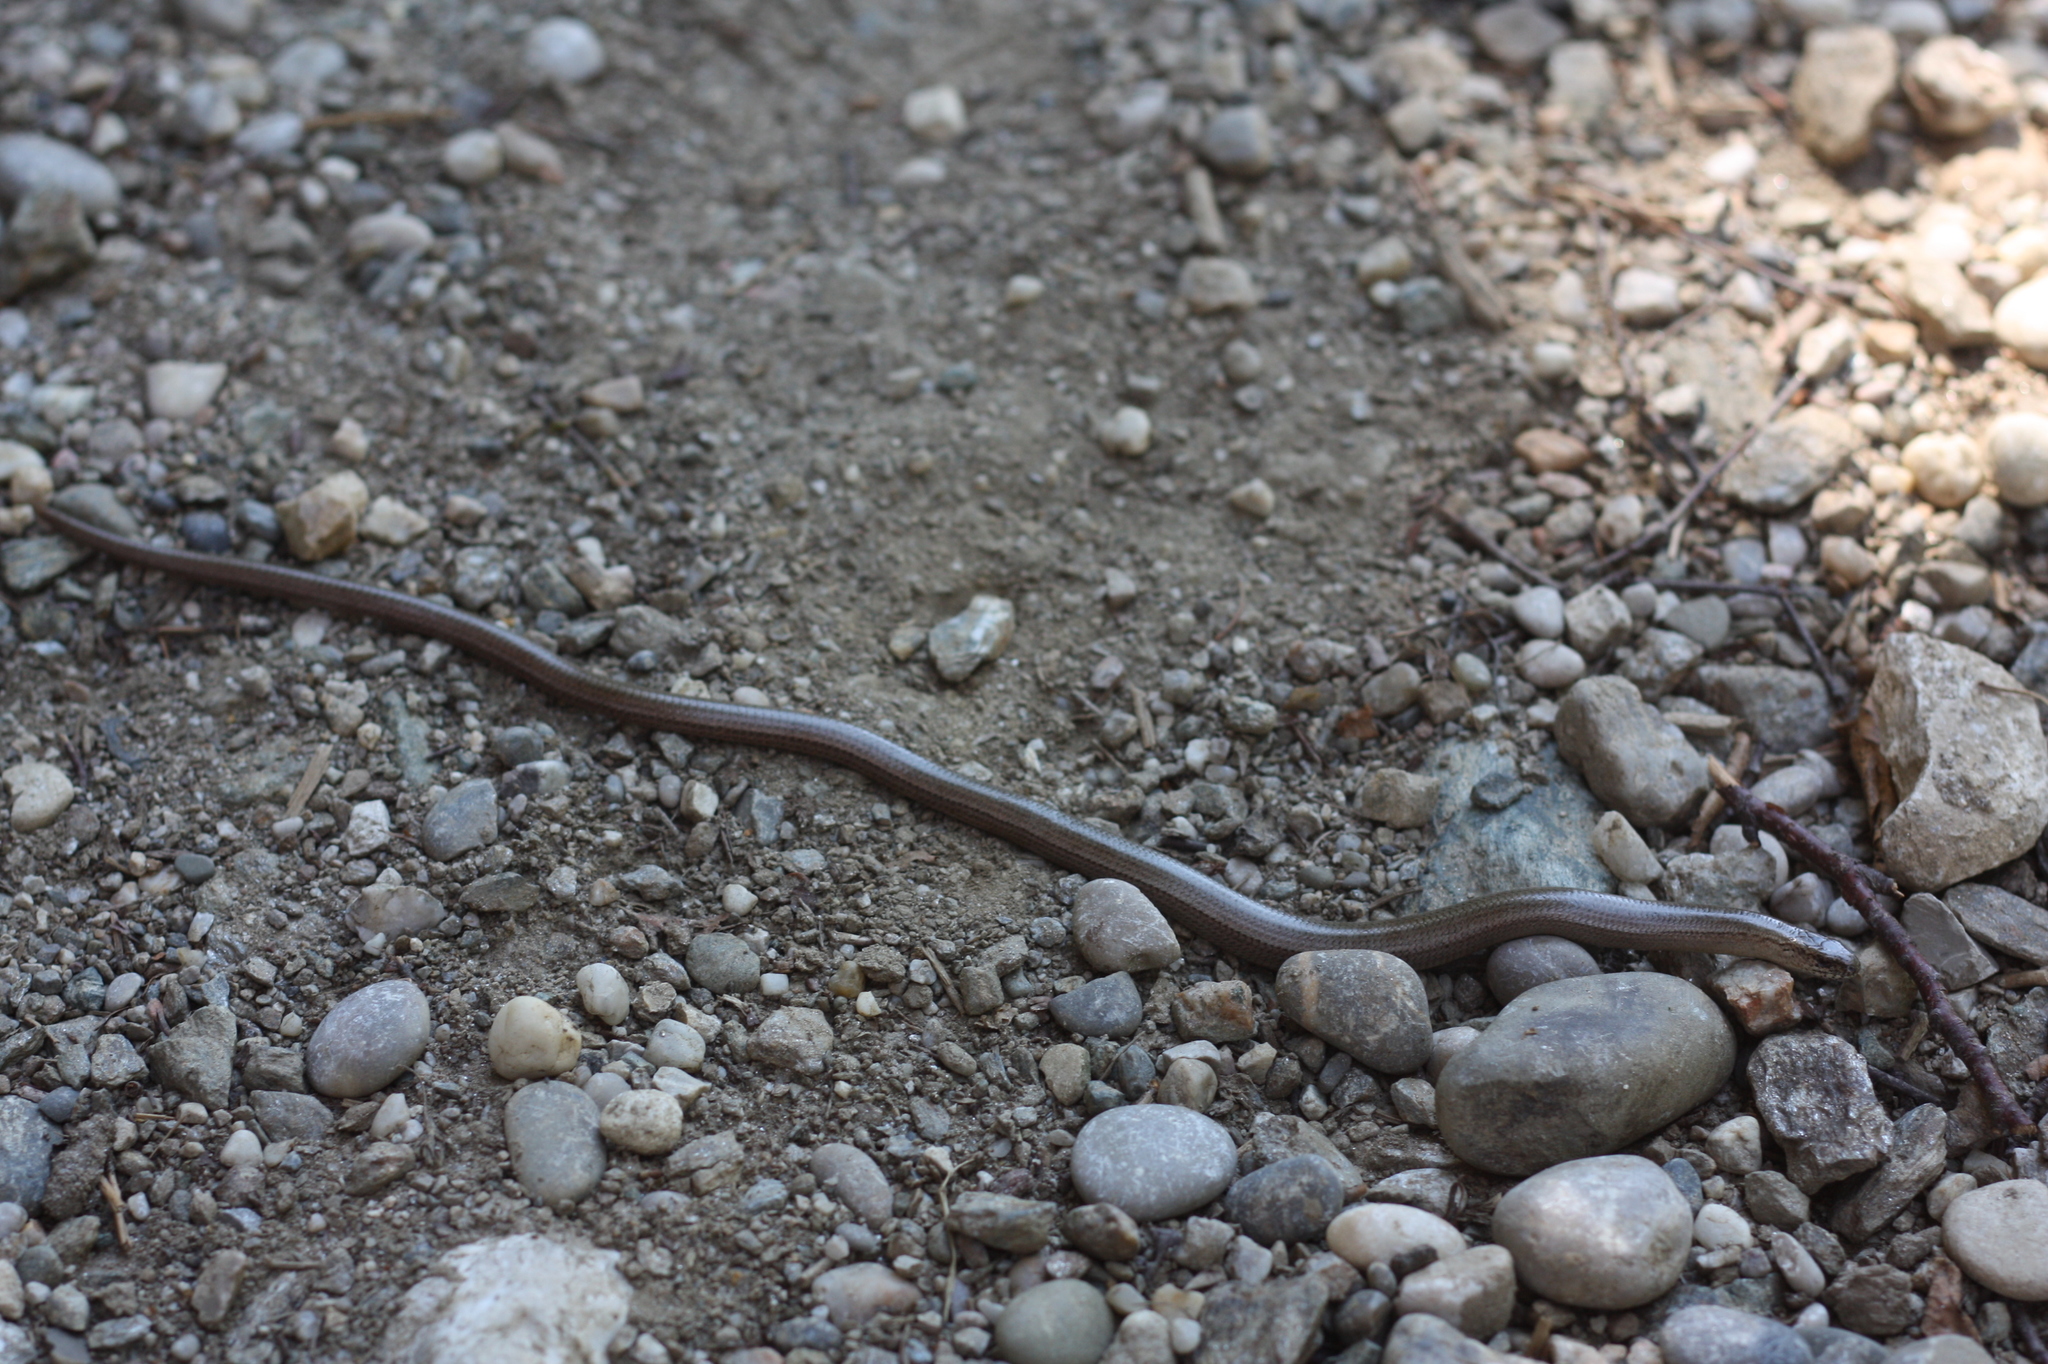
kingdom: Animalia
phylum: Chordata
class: Squamata
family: Anguidae
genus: Anguis
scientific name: Anguis fragilis
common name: Slow worm
